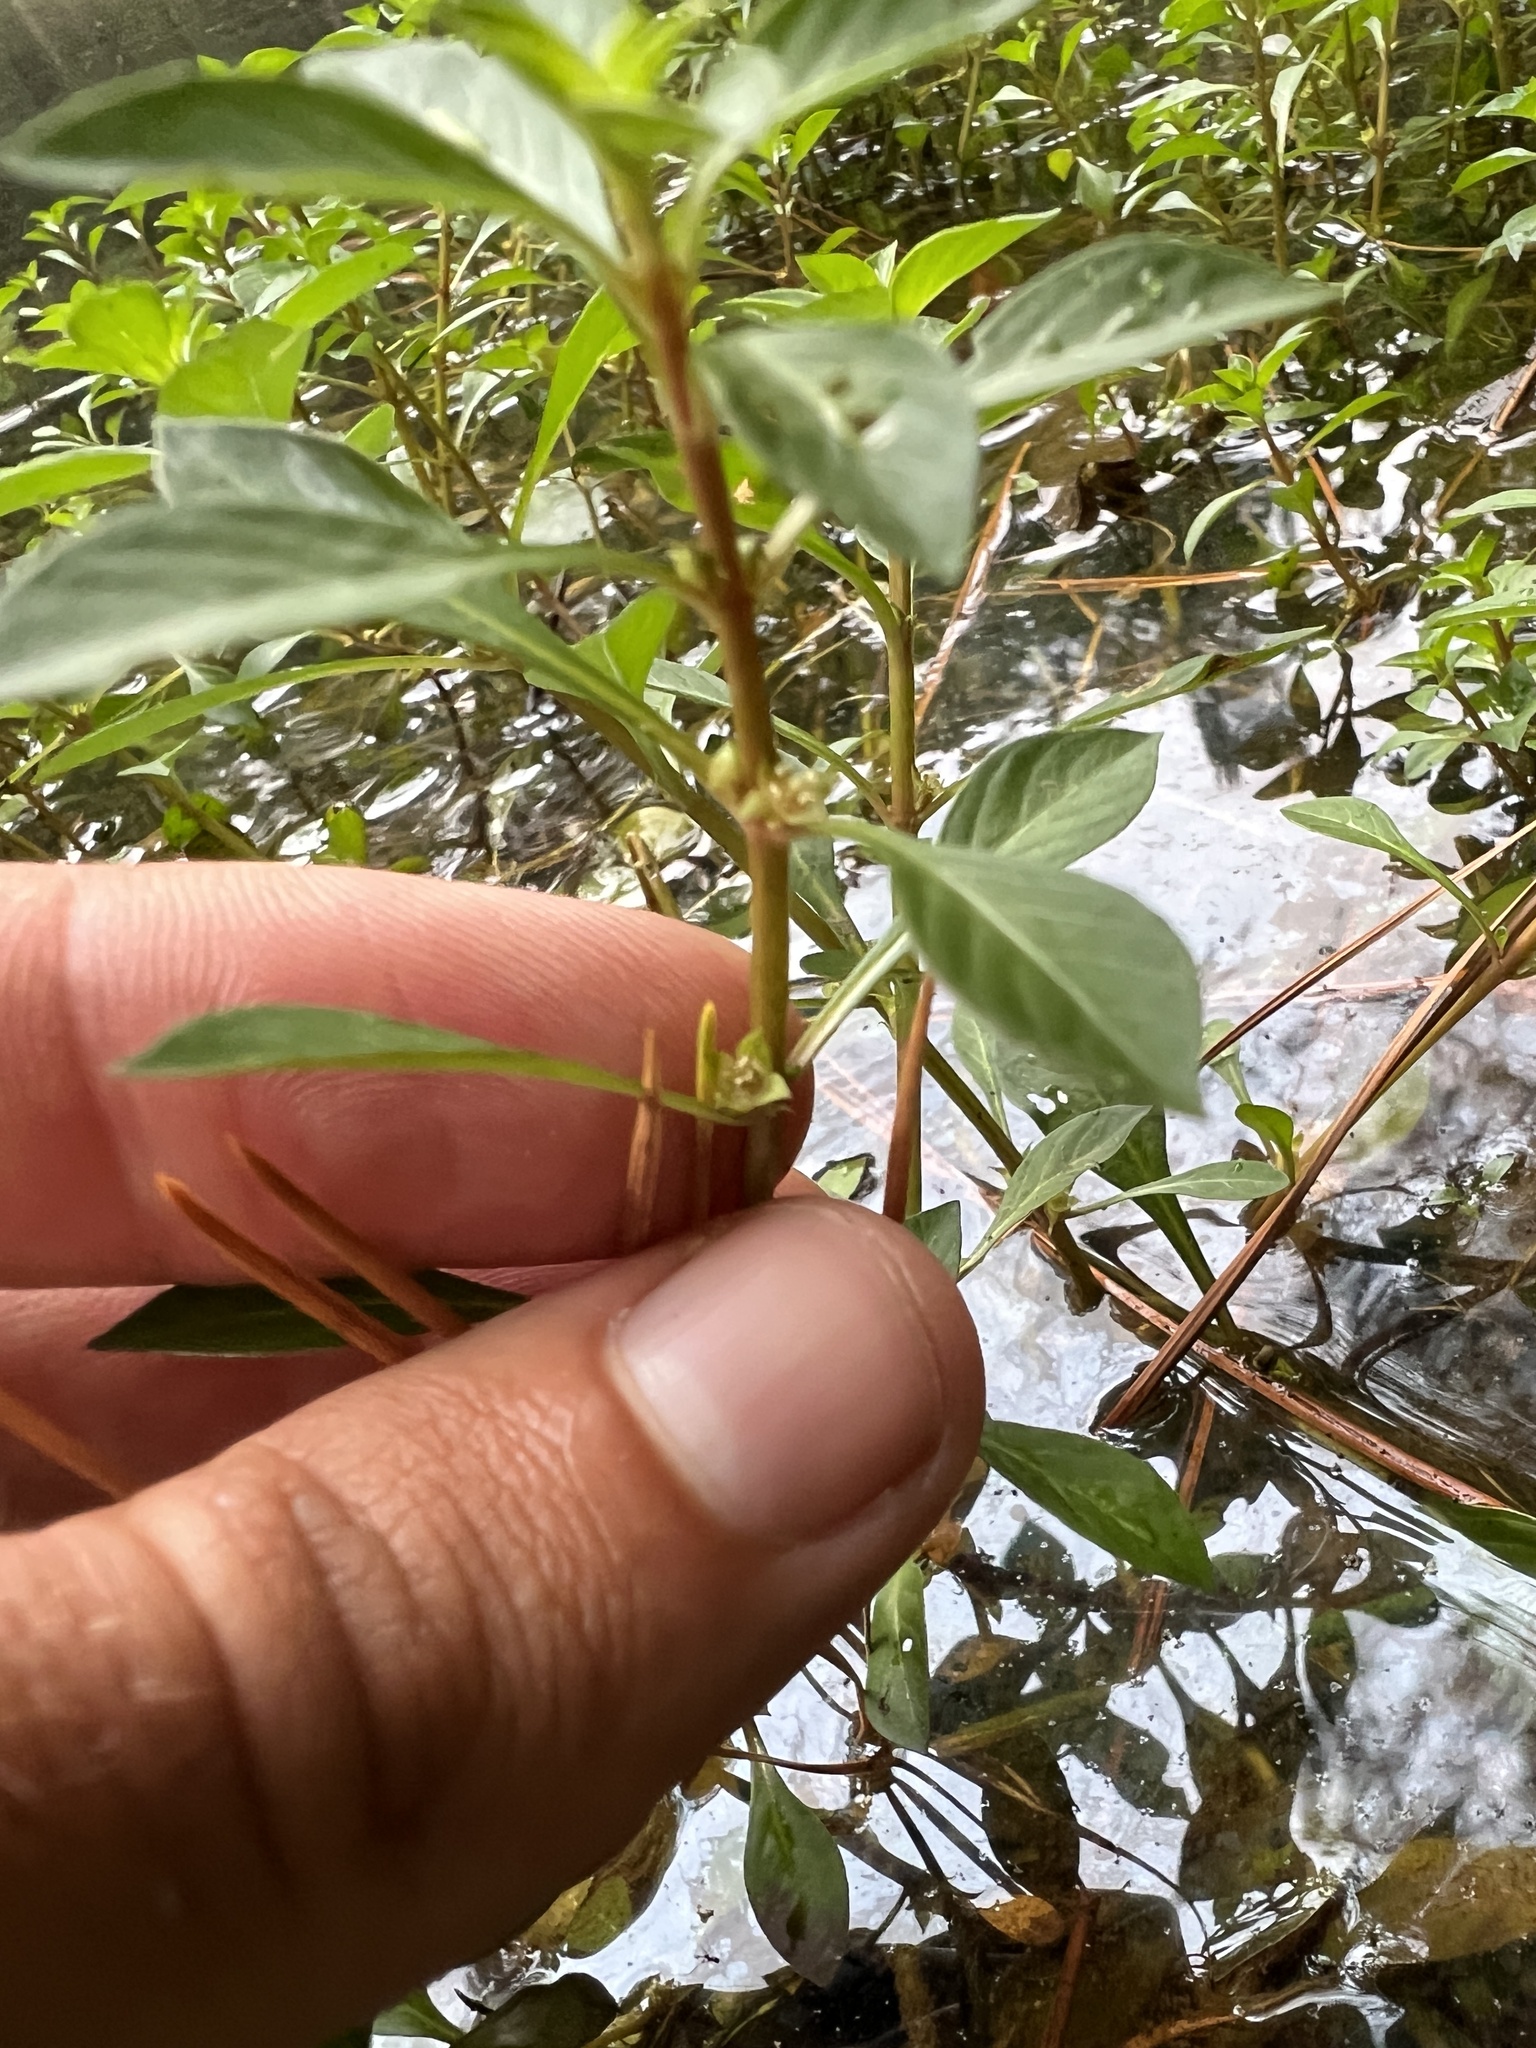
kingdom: Plantae
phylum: Tracheophyta
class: Magnoliopsida
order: Myrtales
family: Onagraceae
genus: Ludwigia
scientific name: Ludwigia palustris
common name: Hampshire-purslane
